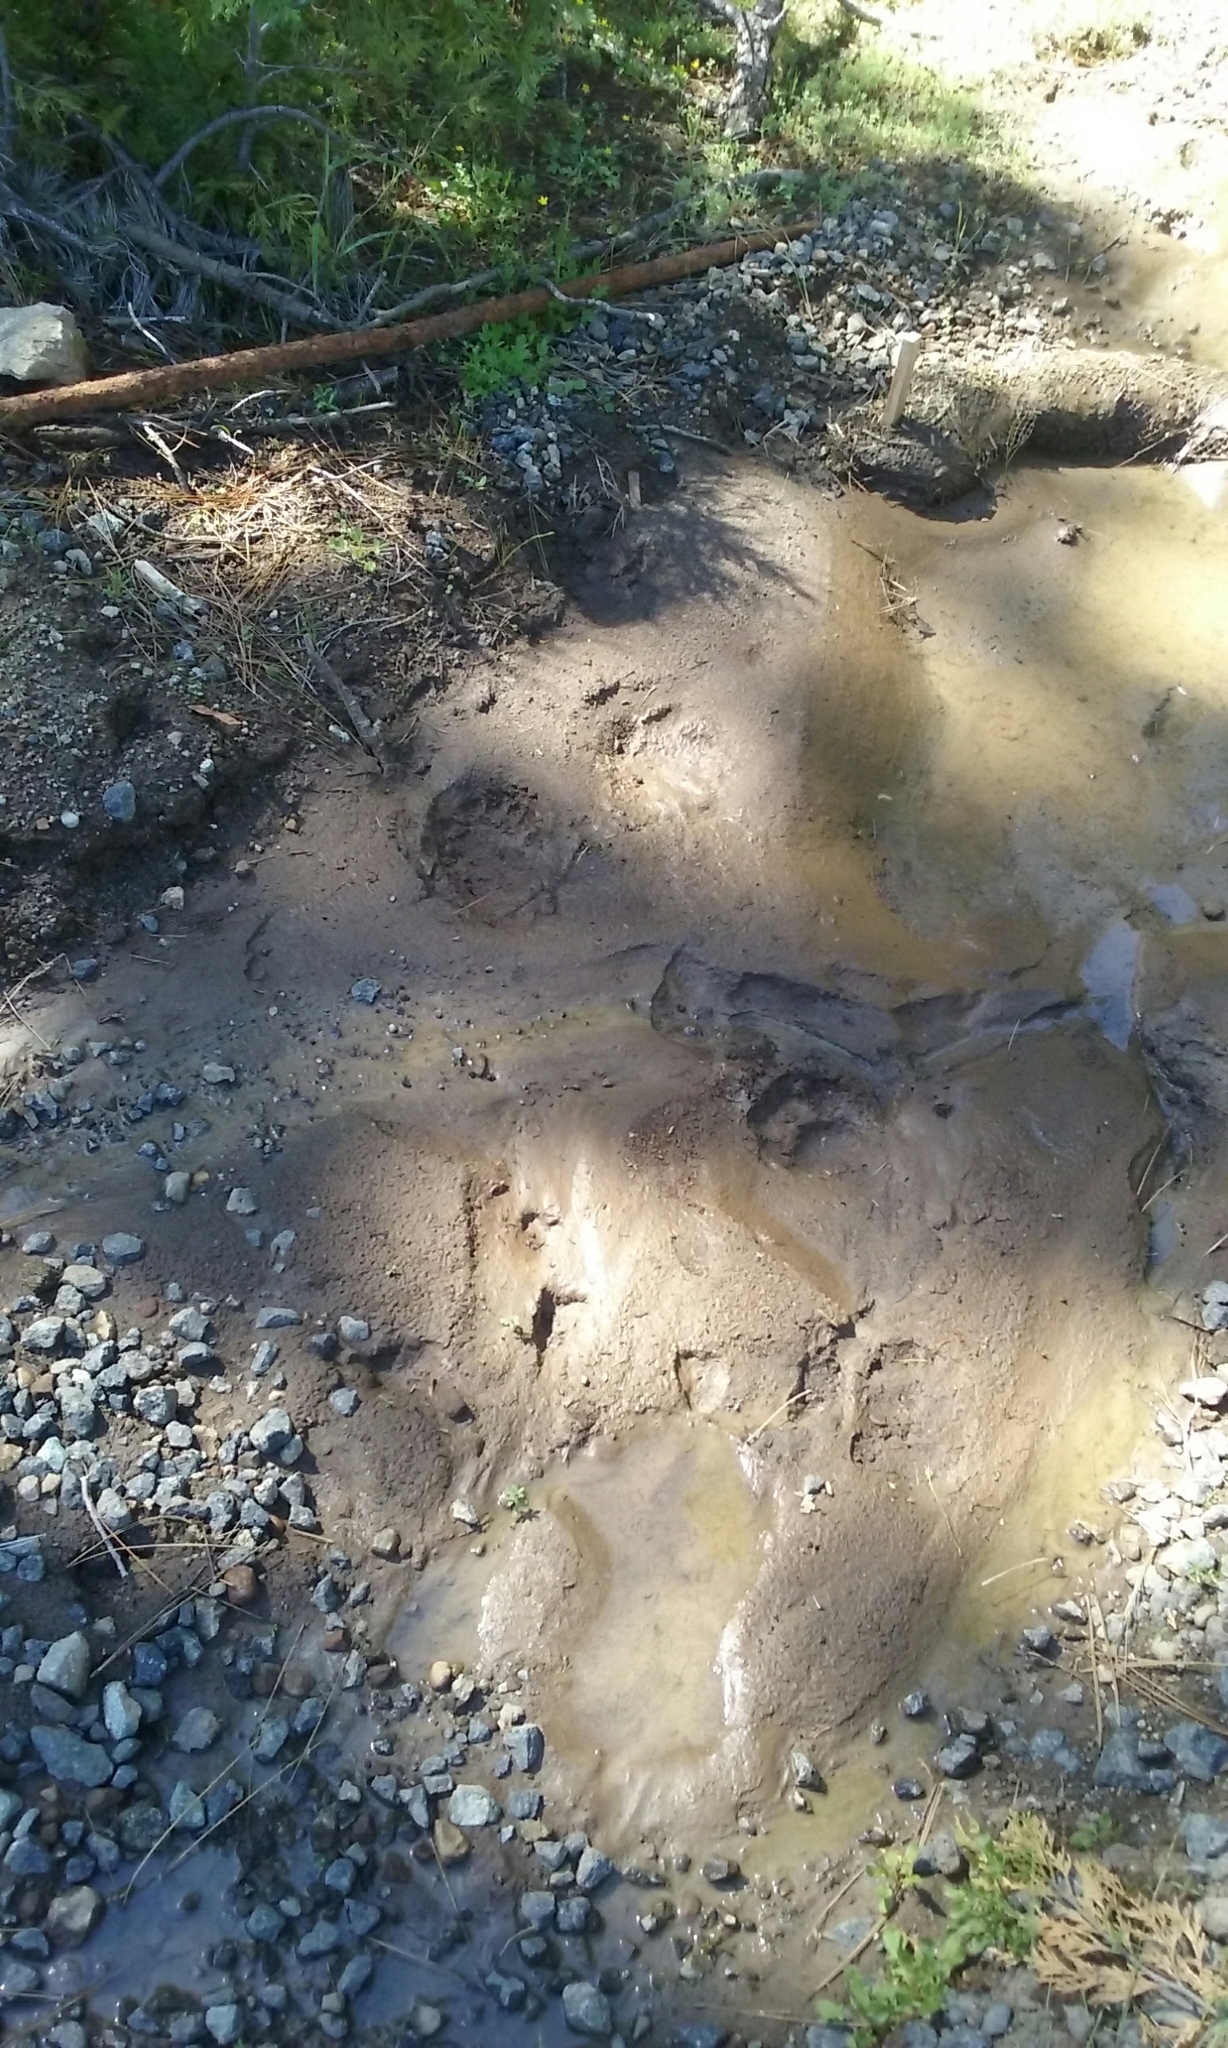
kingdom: Animalia
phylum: Chordata
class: Mammalia
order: Carnivora
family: Ursidae
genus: Ursus
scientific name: Ursus americanus
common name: American black bear
